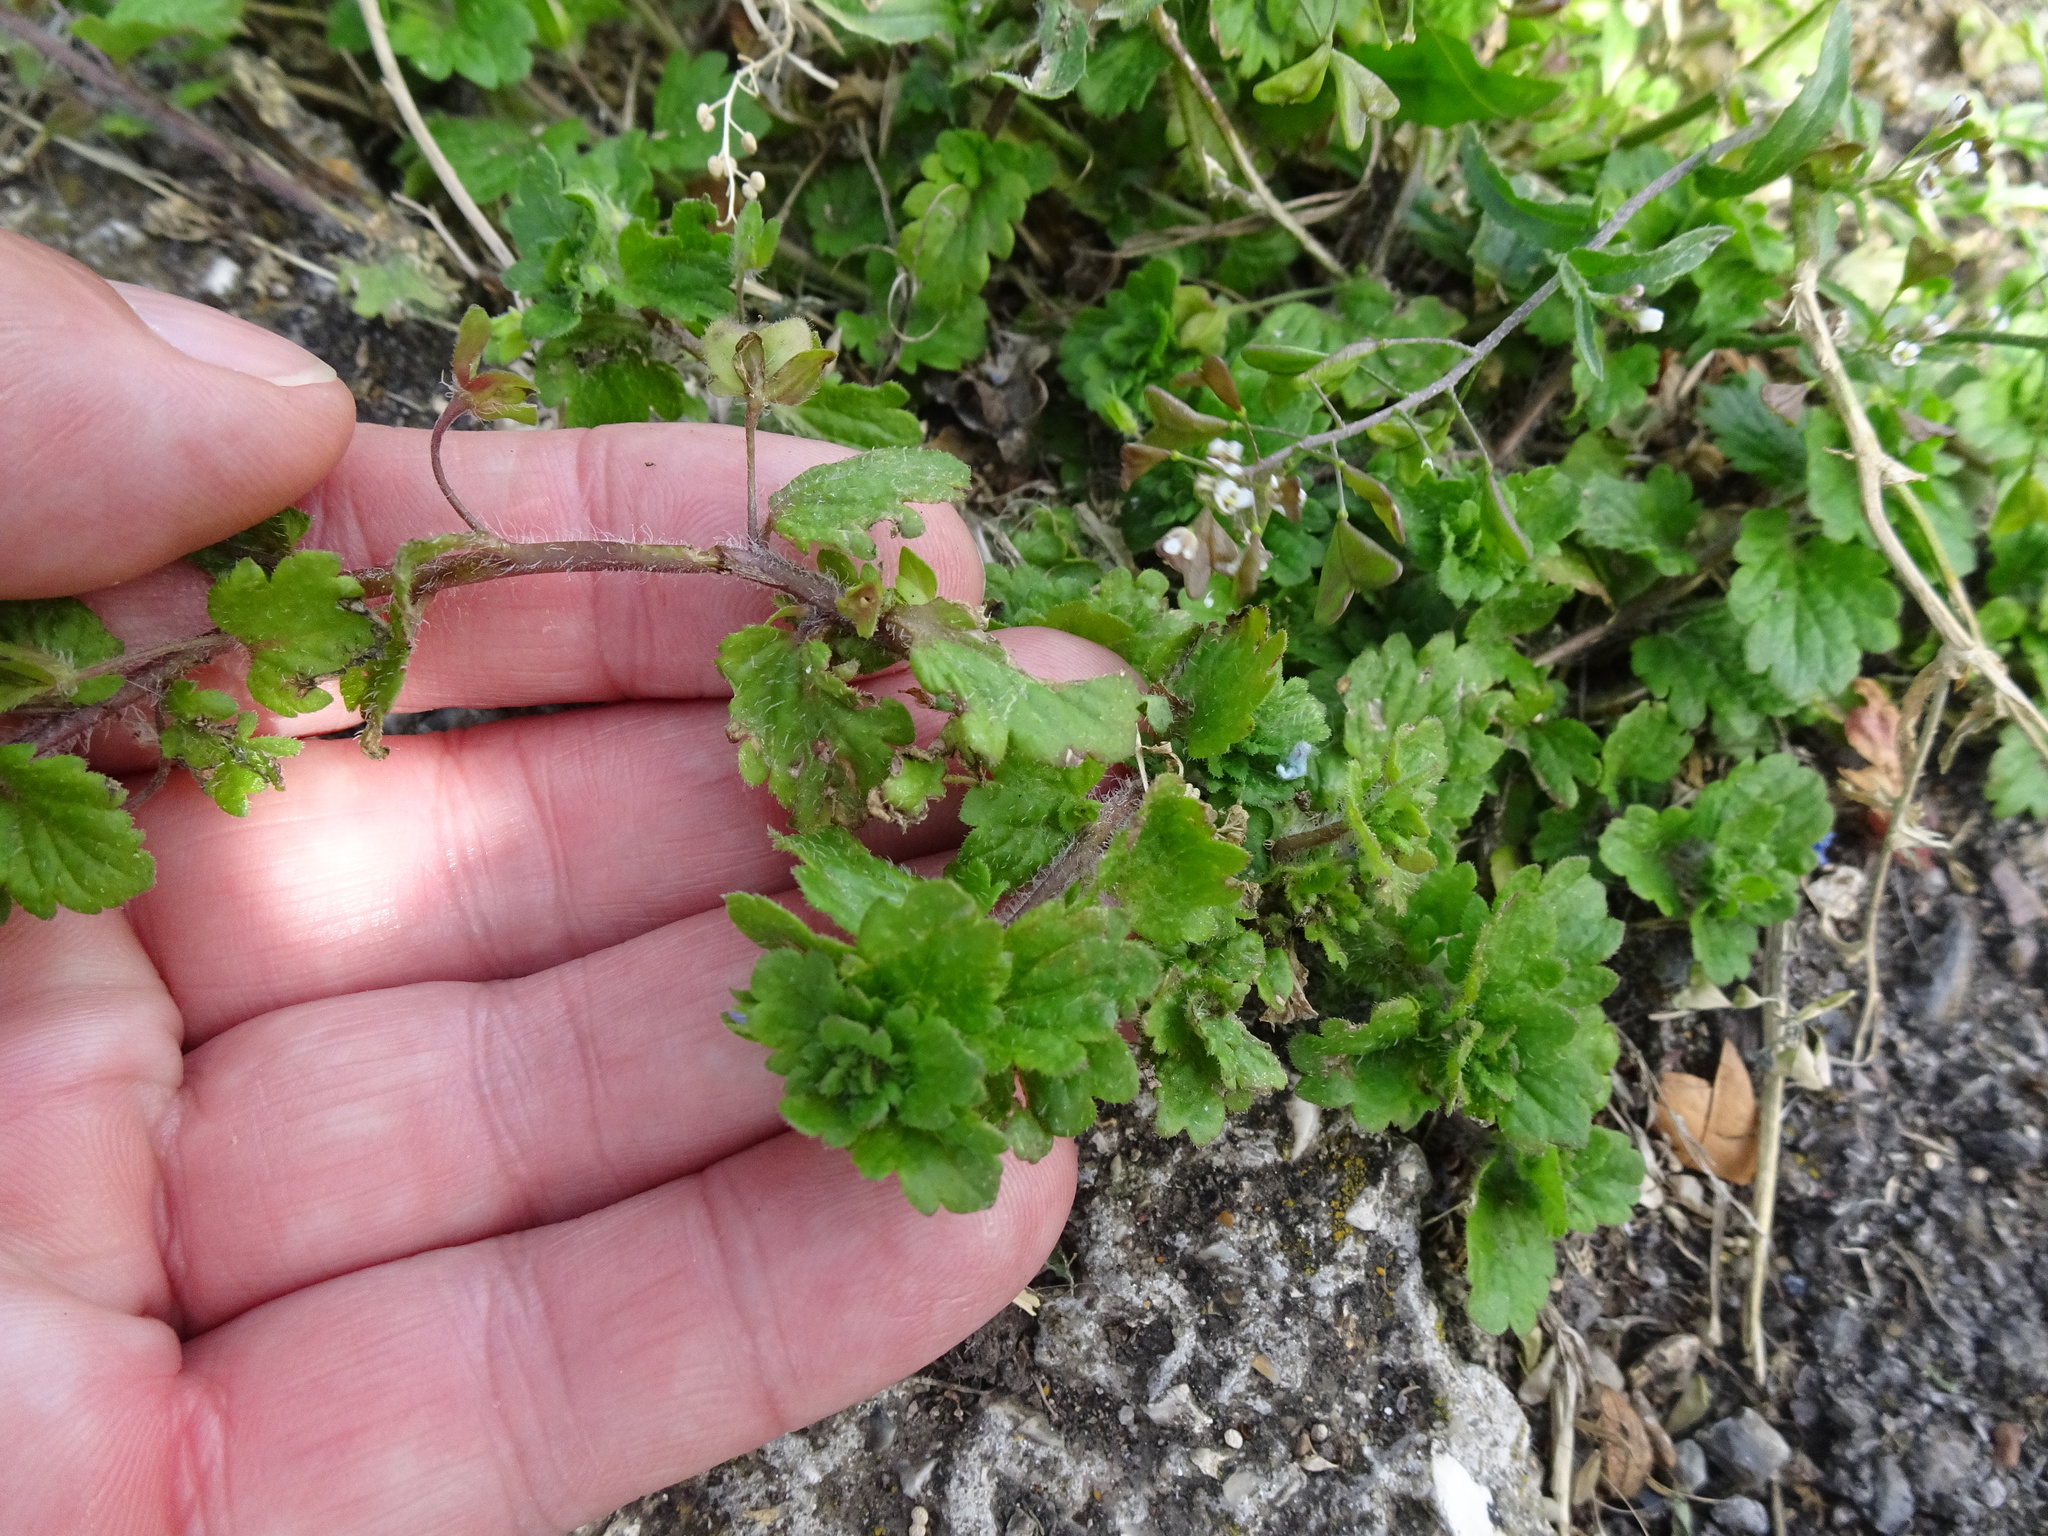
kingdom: Plantae
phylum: Tracheophyta
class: Magnoliopsida
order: Lamiales
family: Plantaginaceae
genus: Veronica
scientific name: Veronica persica
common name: Common field-speedwell
